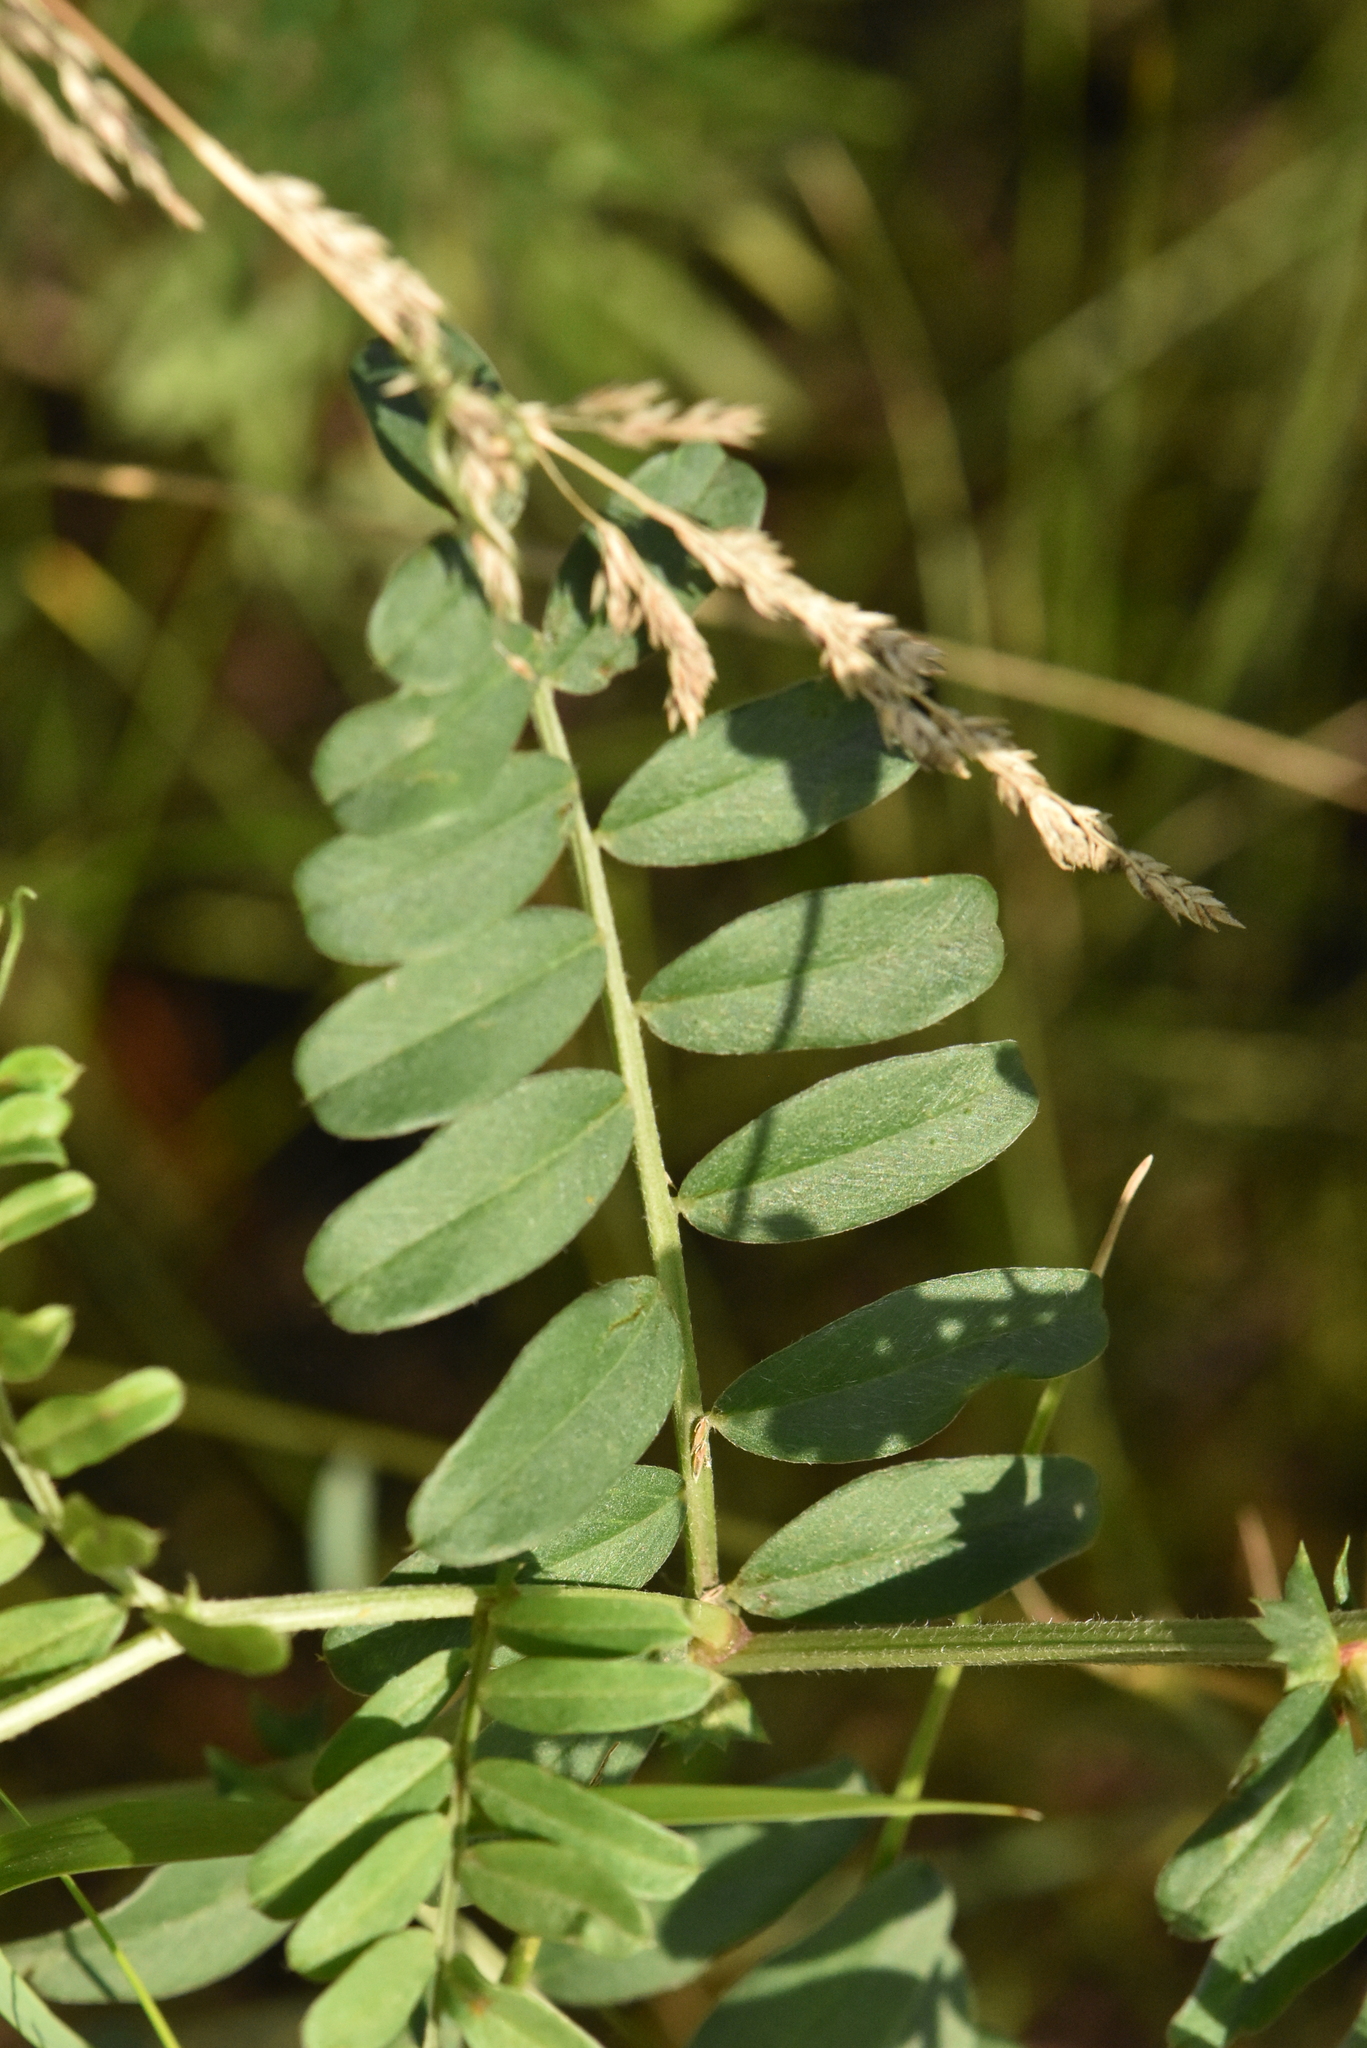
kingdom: Plantae
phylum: Tracheophyta
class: Magnoliopsida
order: Fabales
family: Fabaceae
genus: Vicia
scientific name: Vicia amoena
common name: Cheder ebs
